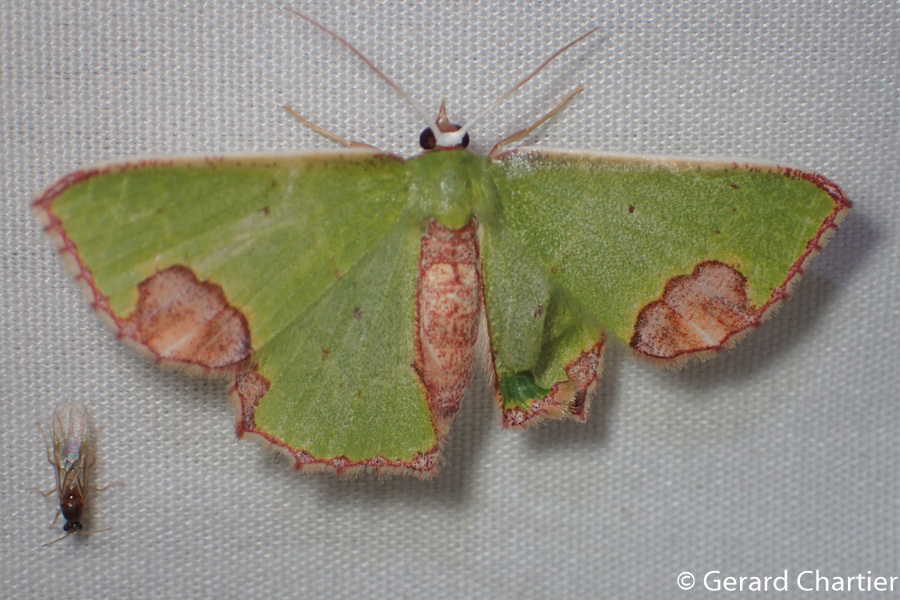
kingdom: Animalia
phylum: Arthropoda
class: Insecta
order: Lepidoptera
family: Geometridae
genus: Spaniocentra
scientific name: Spaniocentra hollowayi
